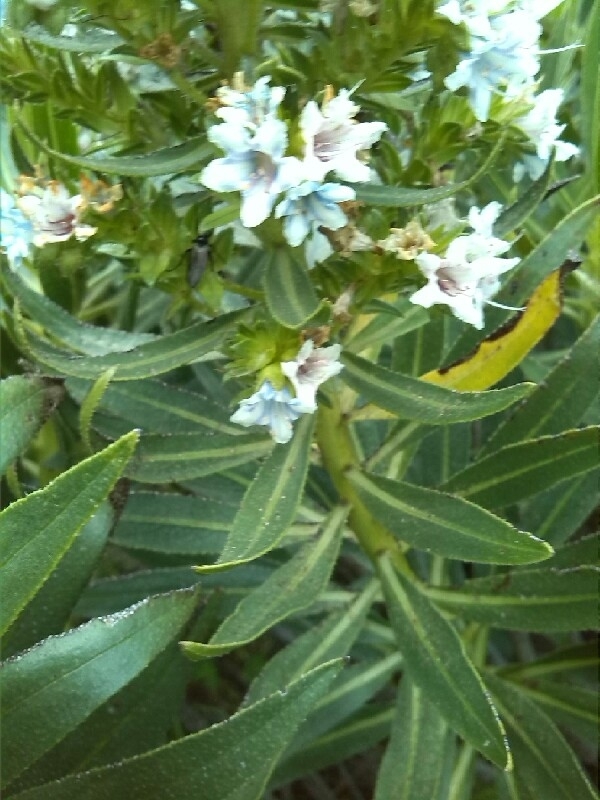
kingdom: Plantae
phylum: Tracheophyta
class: Magnoliopsida
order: Boraginales
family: Boraginaceae
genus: Echium
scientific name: Echium decaisnei
